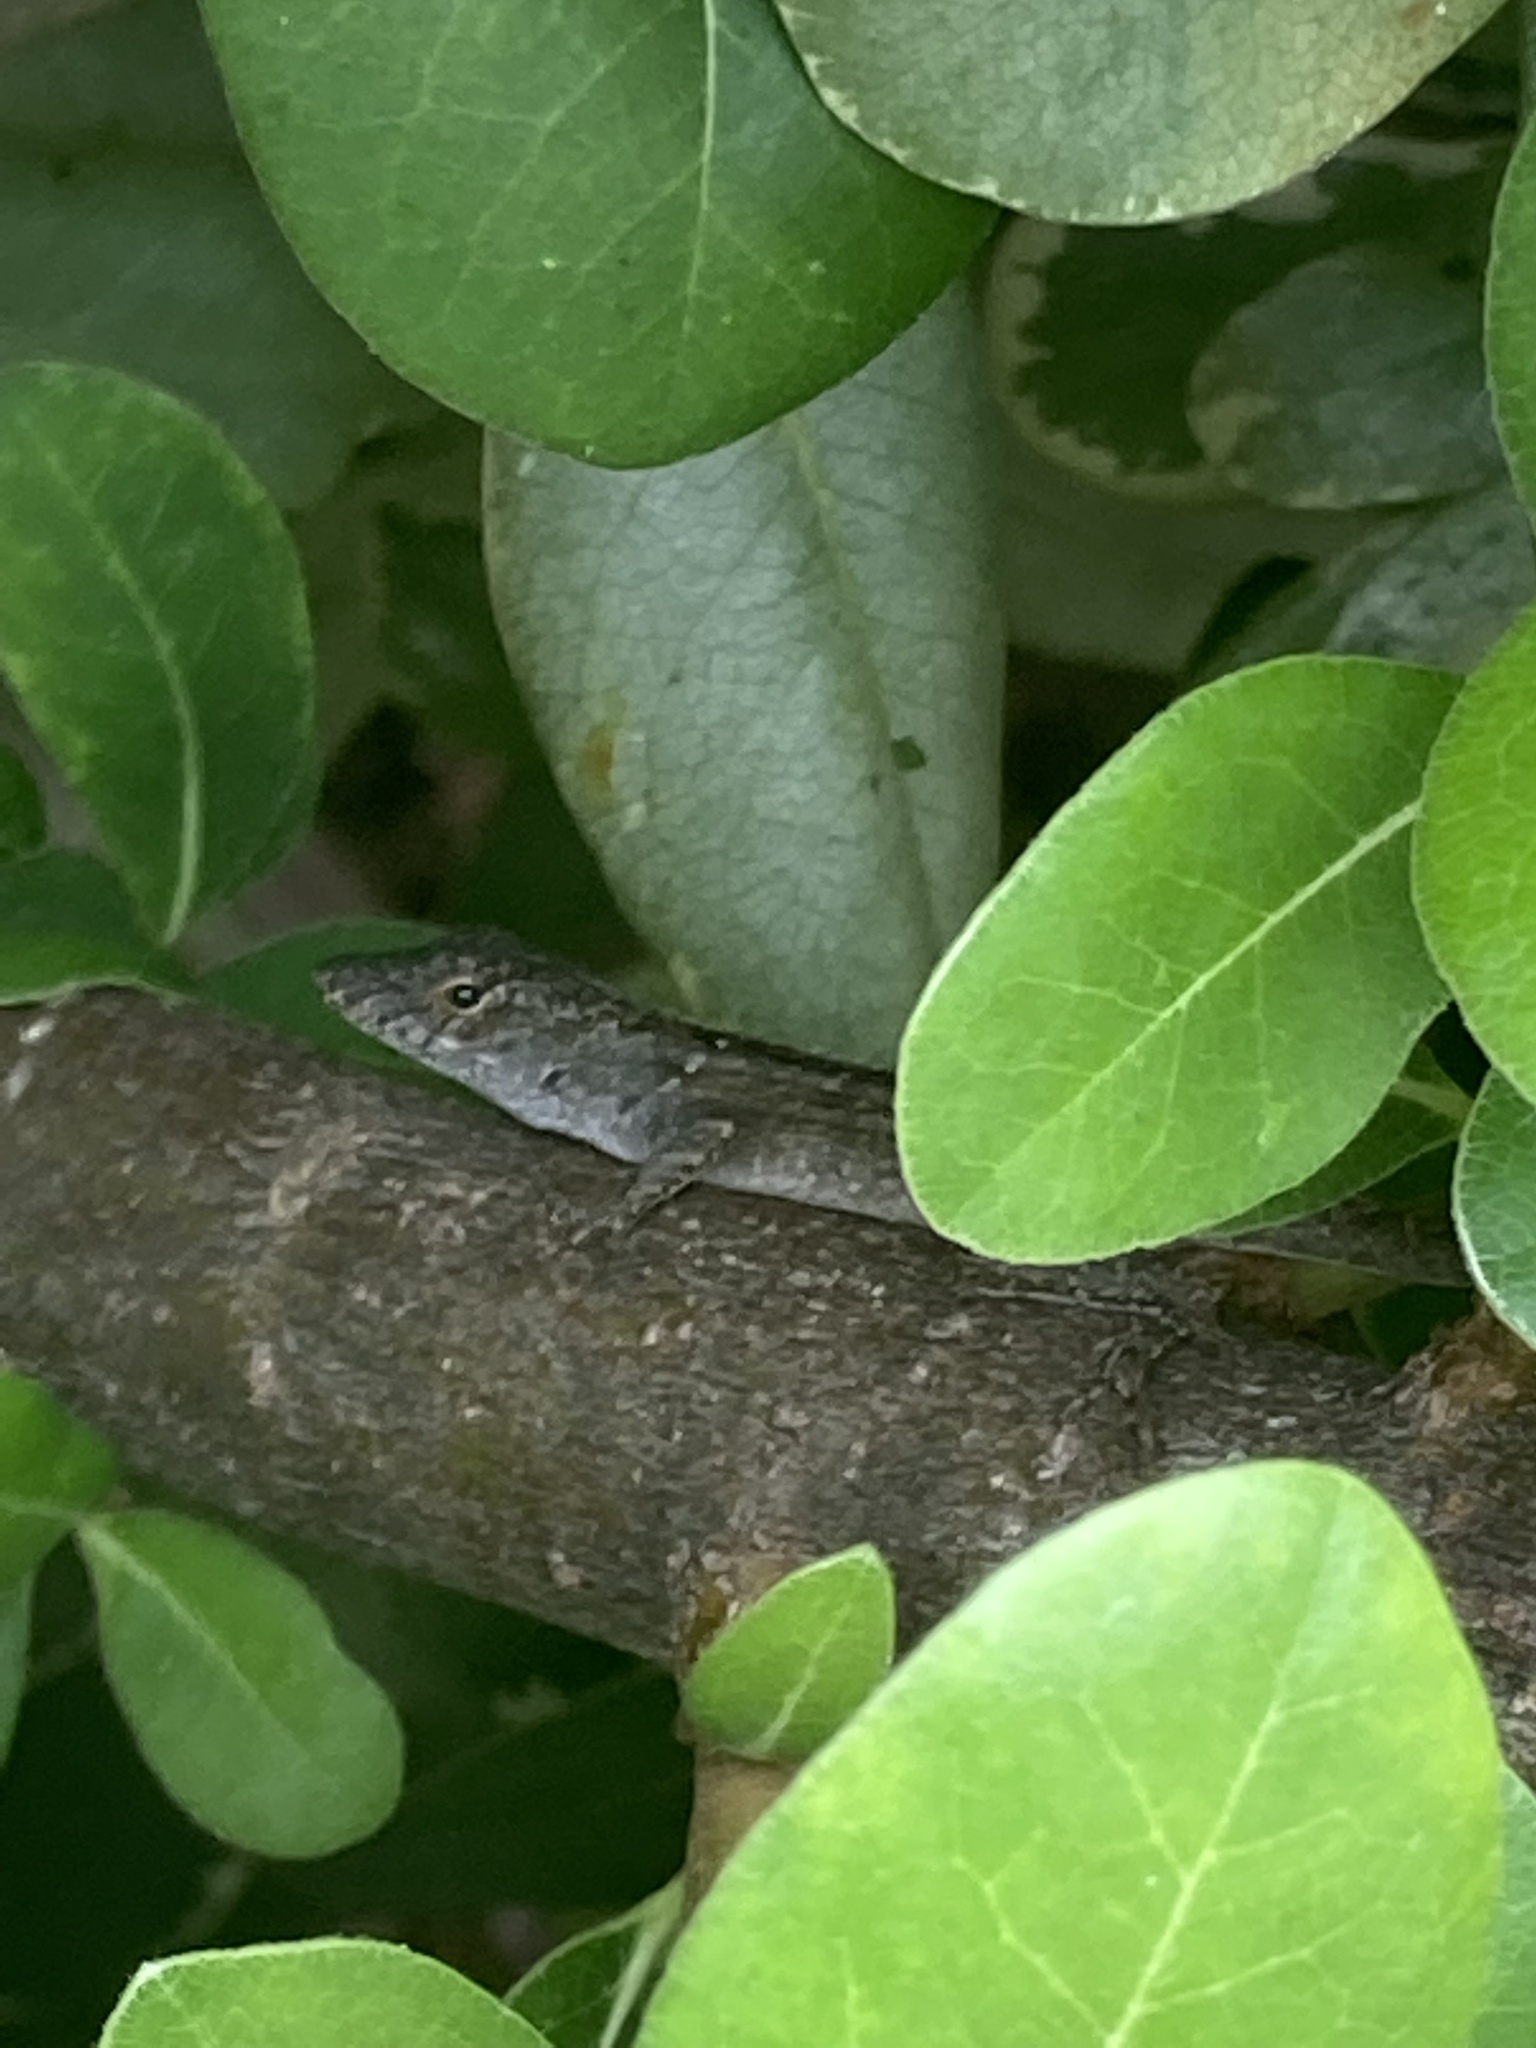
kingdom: Animalia
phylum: Chordata
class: Squamata
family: Dactyloidae
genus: Anolis
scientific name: Anolis sagrei
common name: Brown anole
